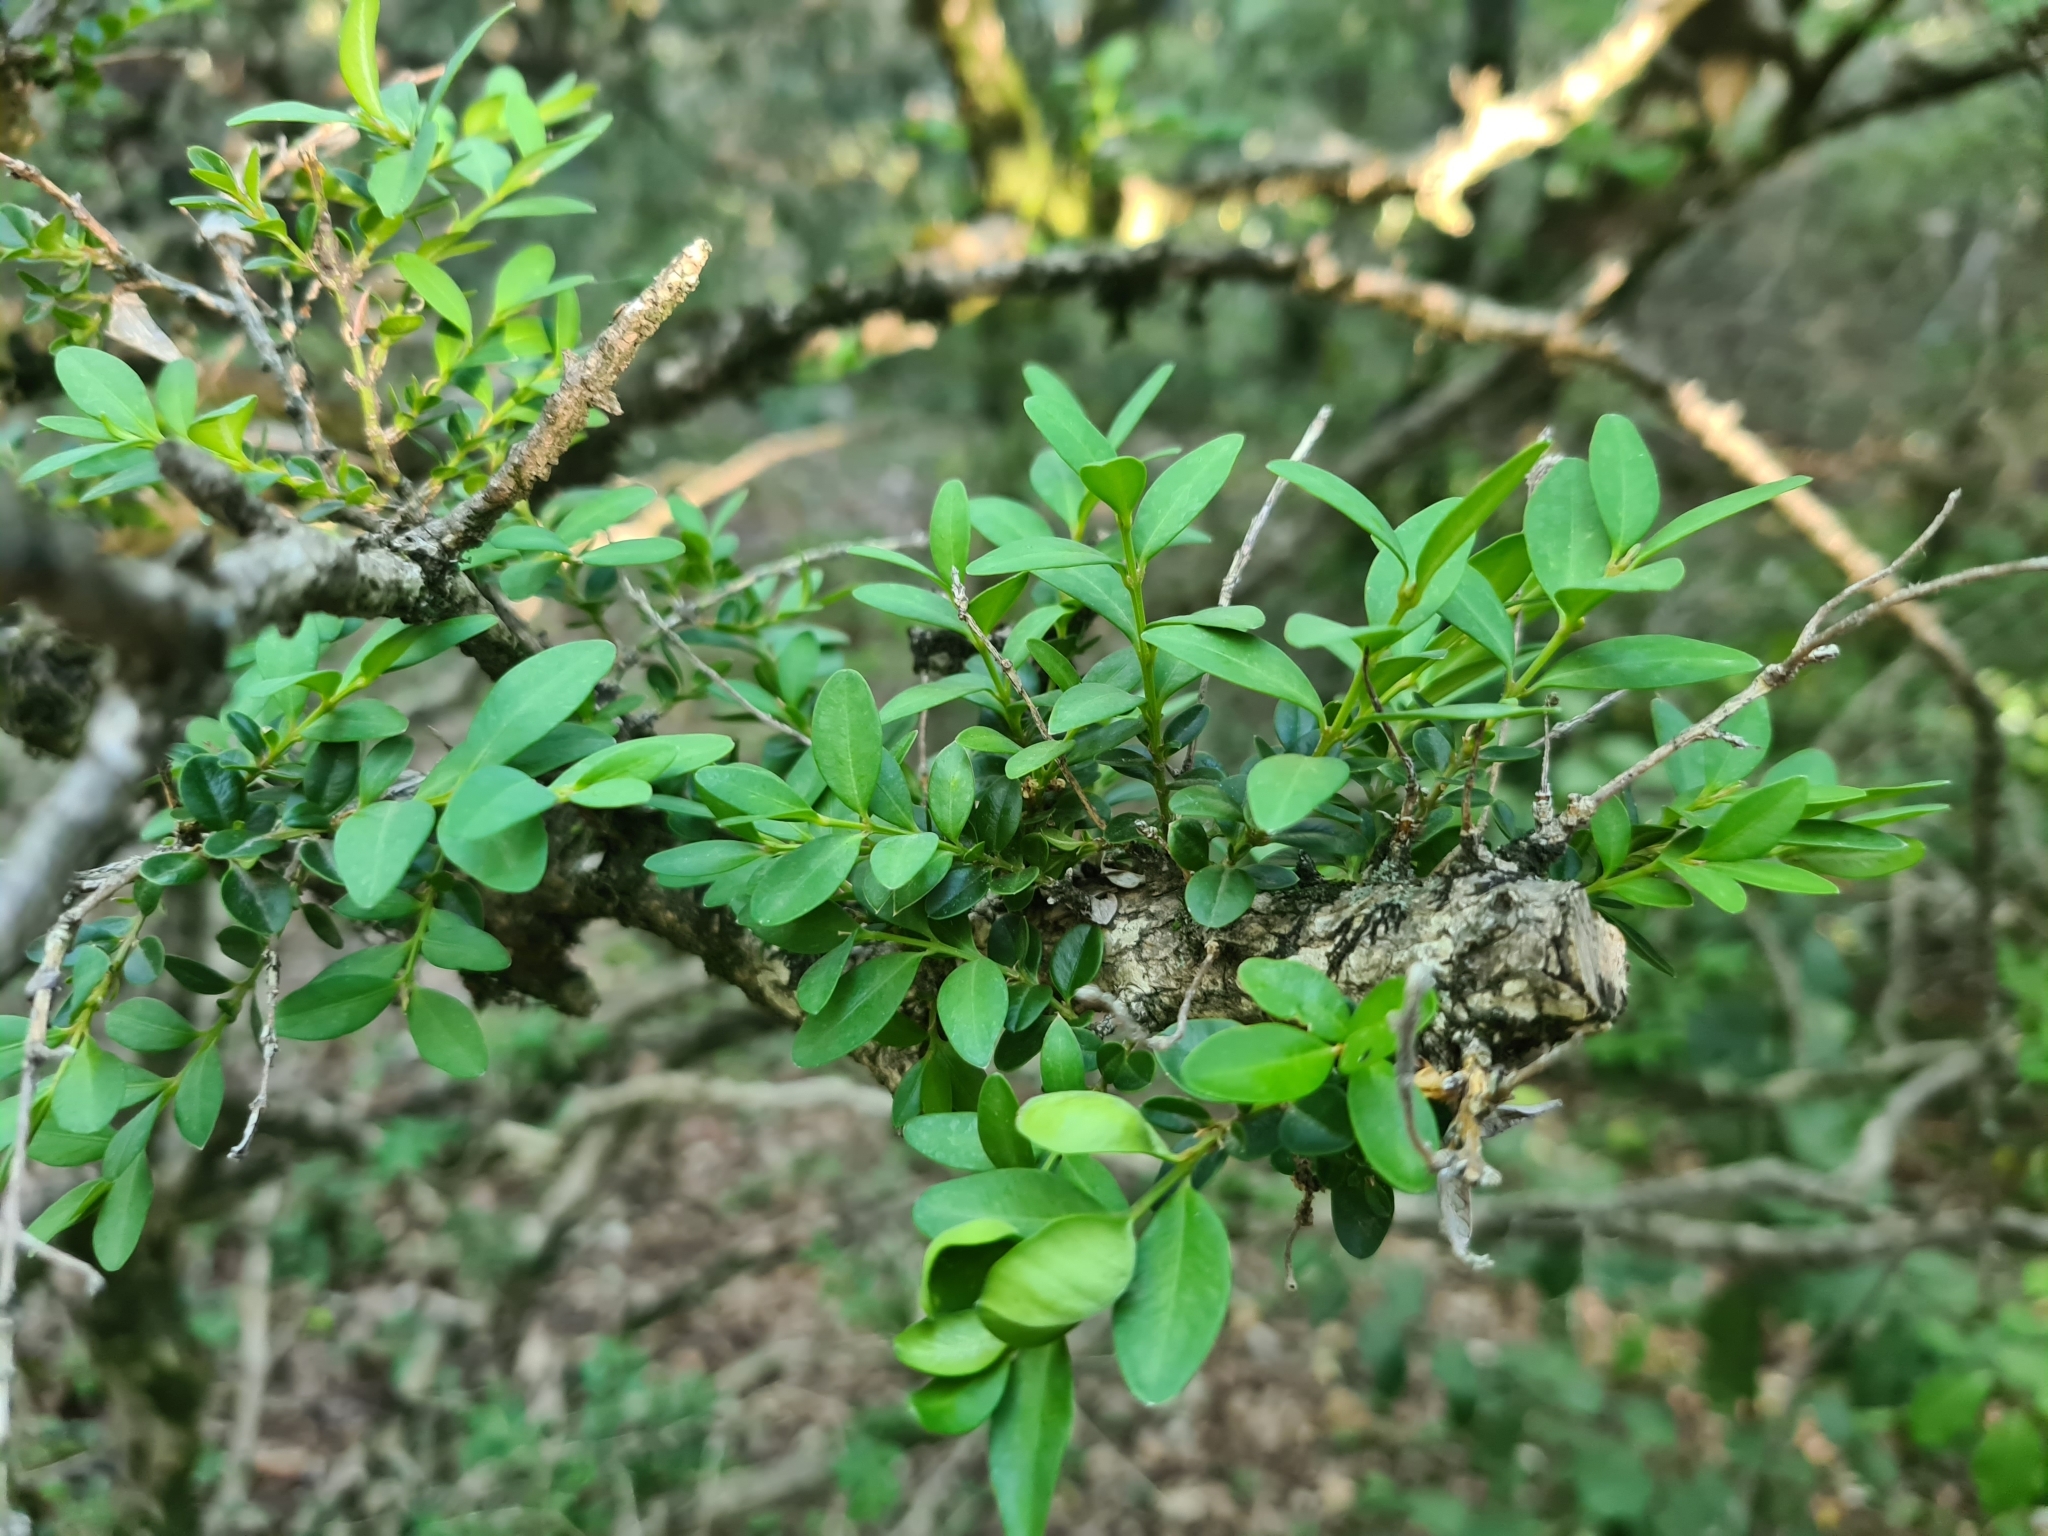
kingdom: Plantae
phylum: Tracheophyta
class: Magnoliopsida
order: Buxales
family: Buxaceae
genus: Buxus
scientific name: Buxus sempervirens
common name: Box
